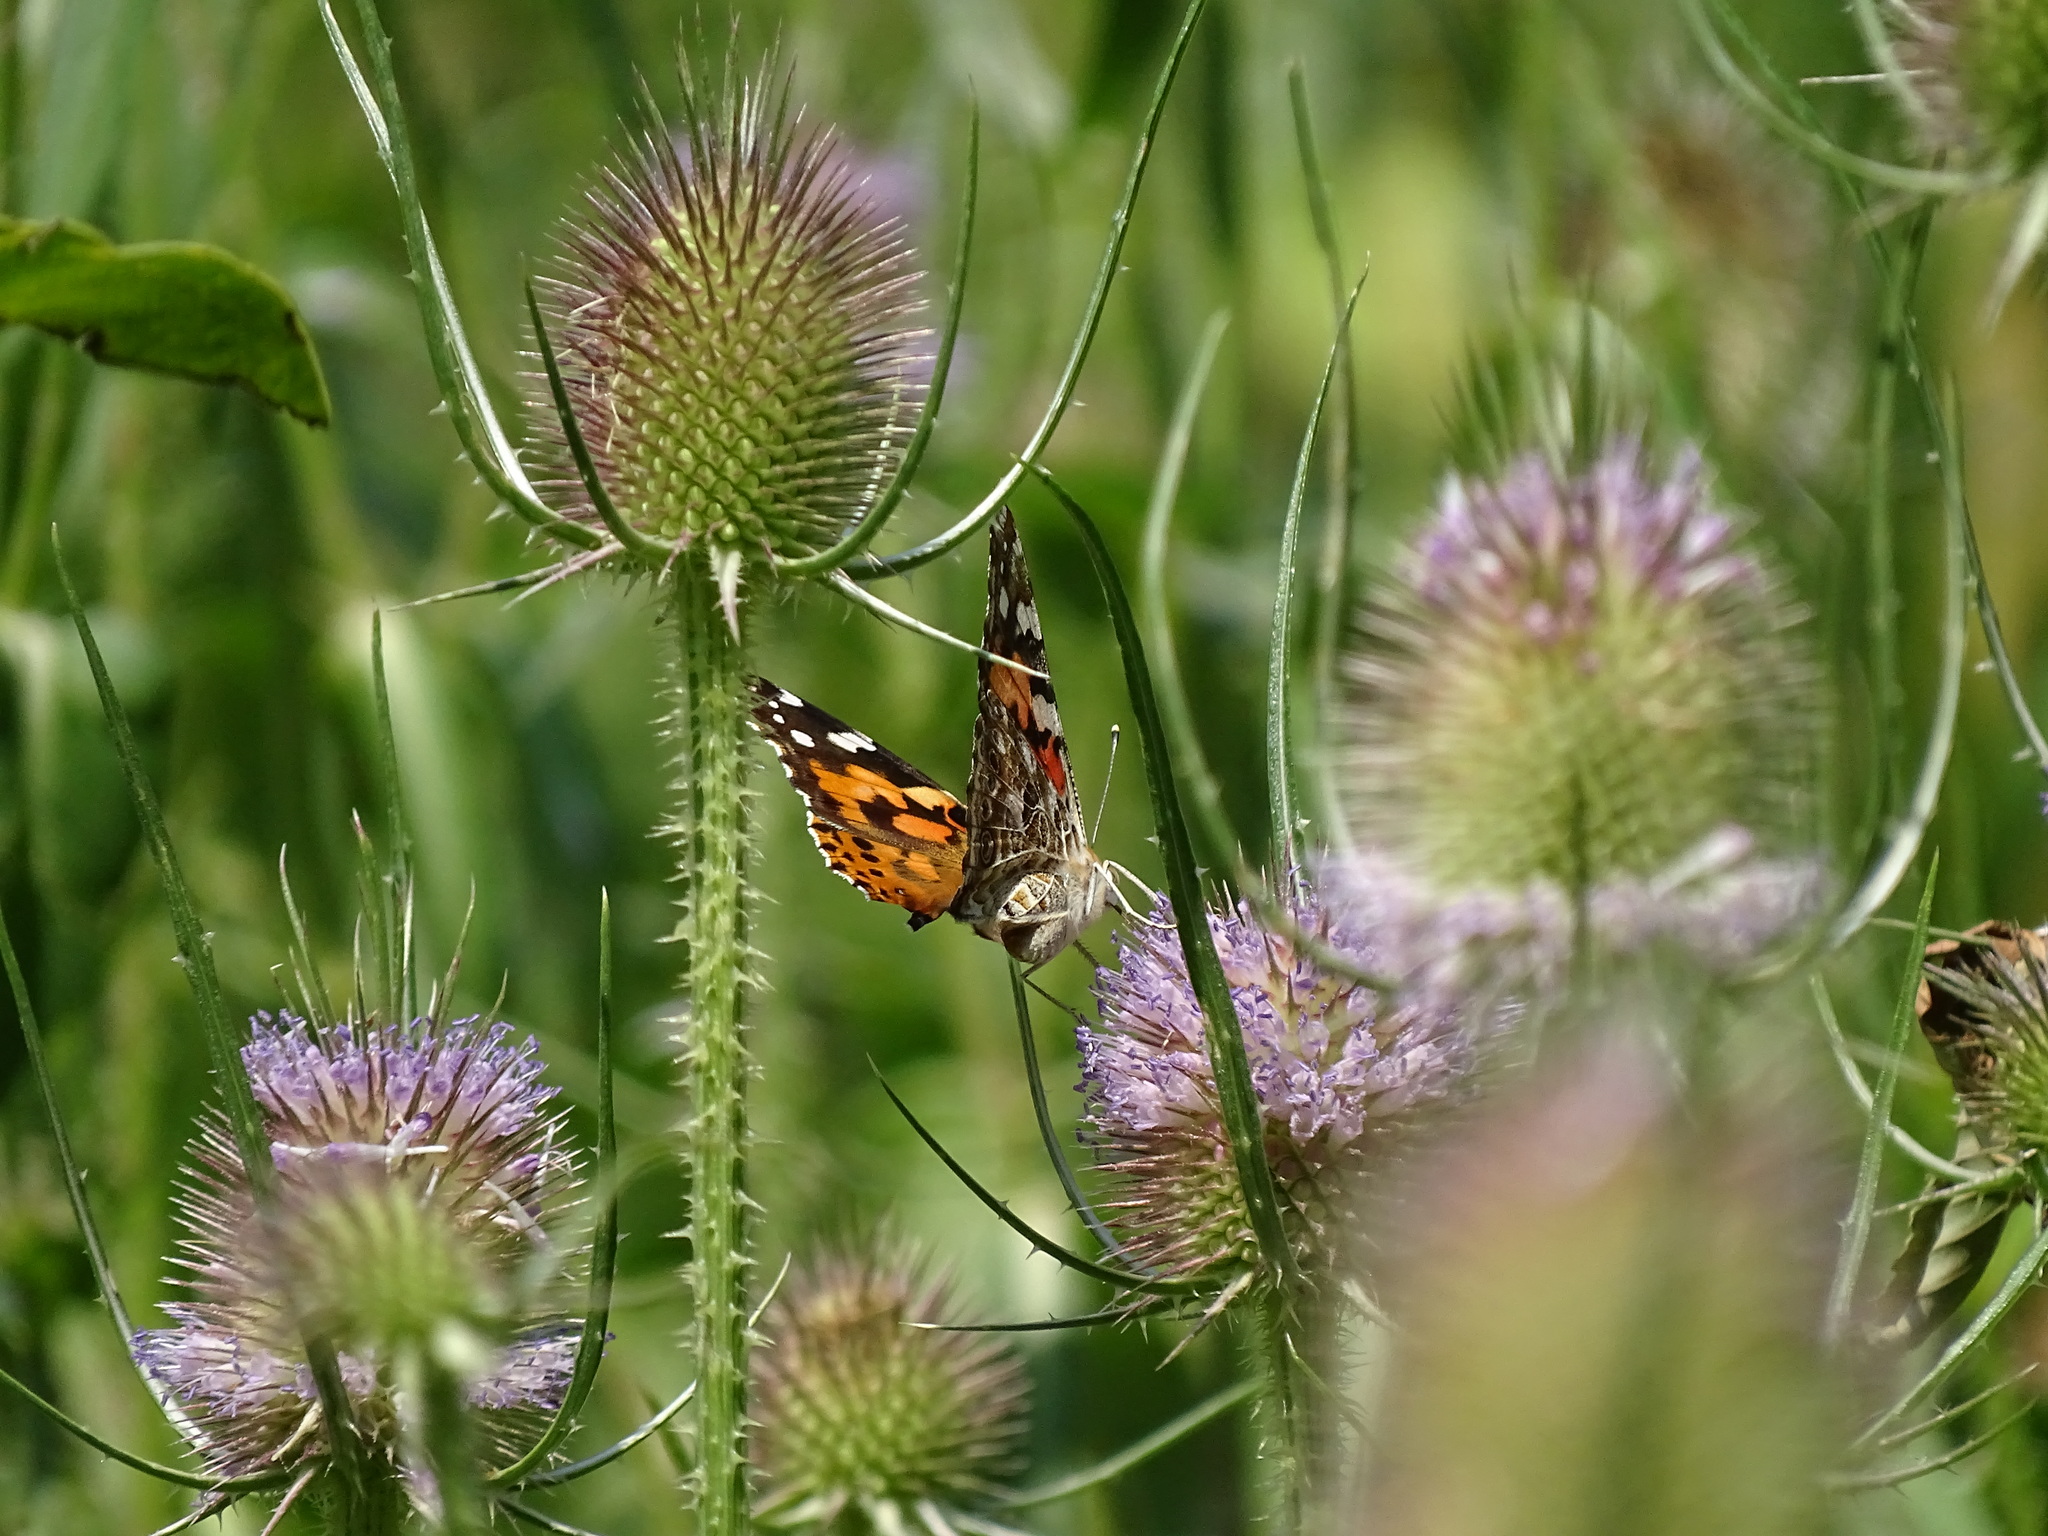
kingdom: Animalia
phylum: Arthropoda
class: Insecta
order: Lepidoptera
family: Nymphalidae
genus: Vanessa
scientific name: Vanessa cardui
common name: Painted lady
